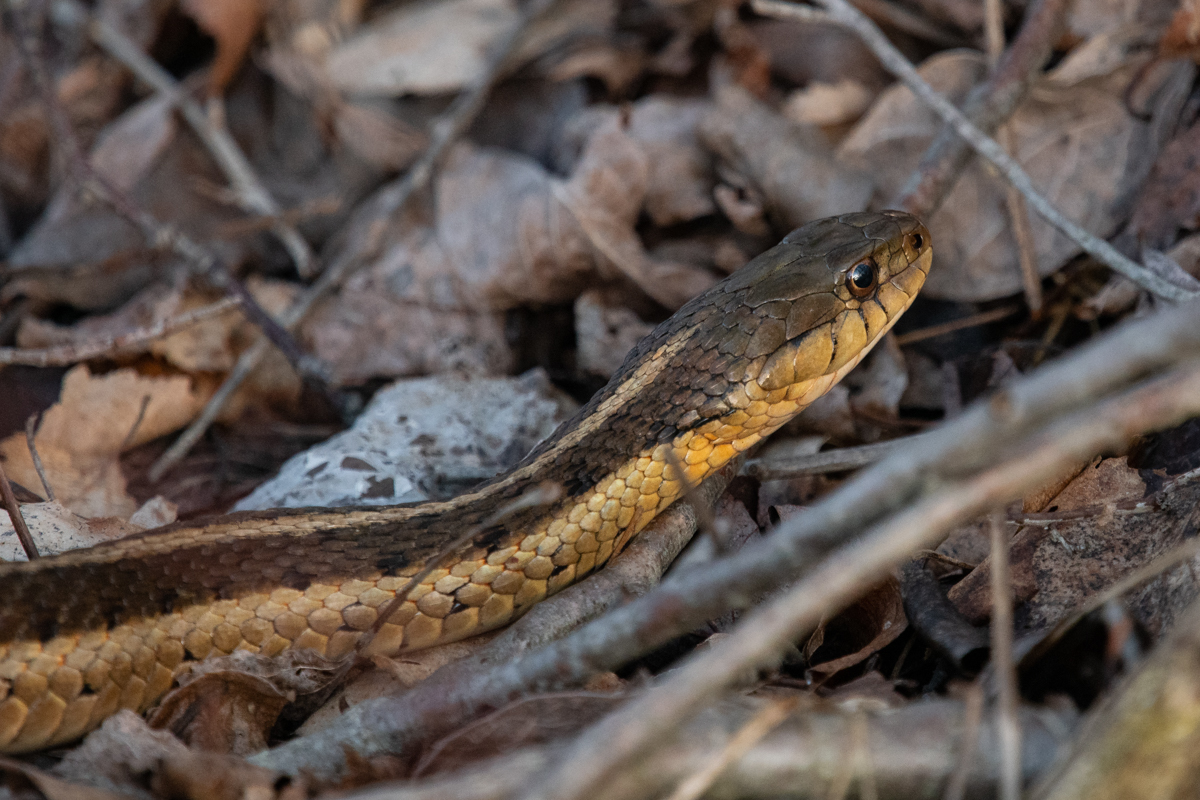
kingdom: Animalia
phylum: Chordata
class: Squamata
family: Colubridae
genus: Thamnophis
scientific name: Thamnophis sirtalis
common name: Common garter snake
